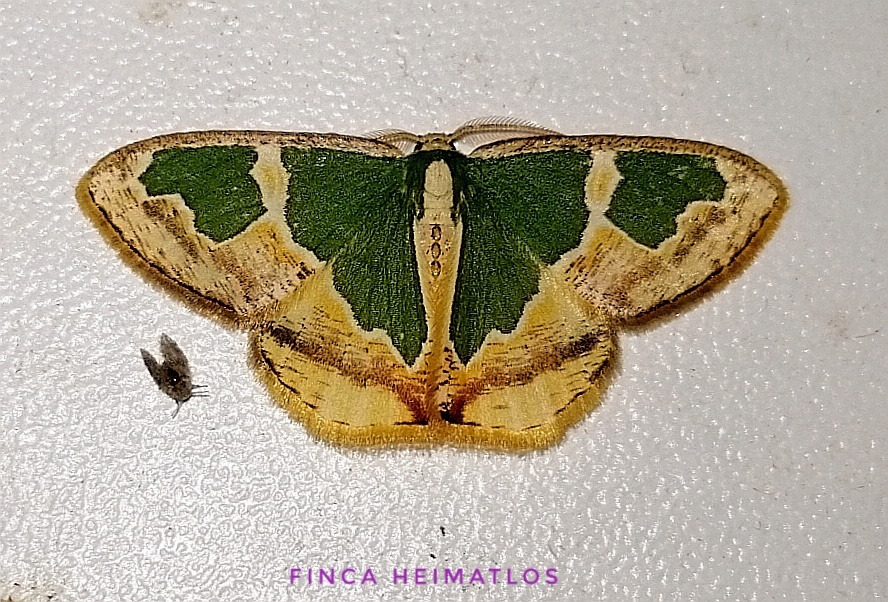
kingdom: Animalia
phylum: Arthropoda
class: Insecta
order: Lepidoptera
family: Geometridae
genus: Oospila
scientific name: Oospila venezuelata
